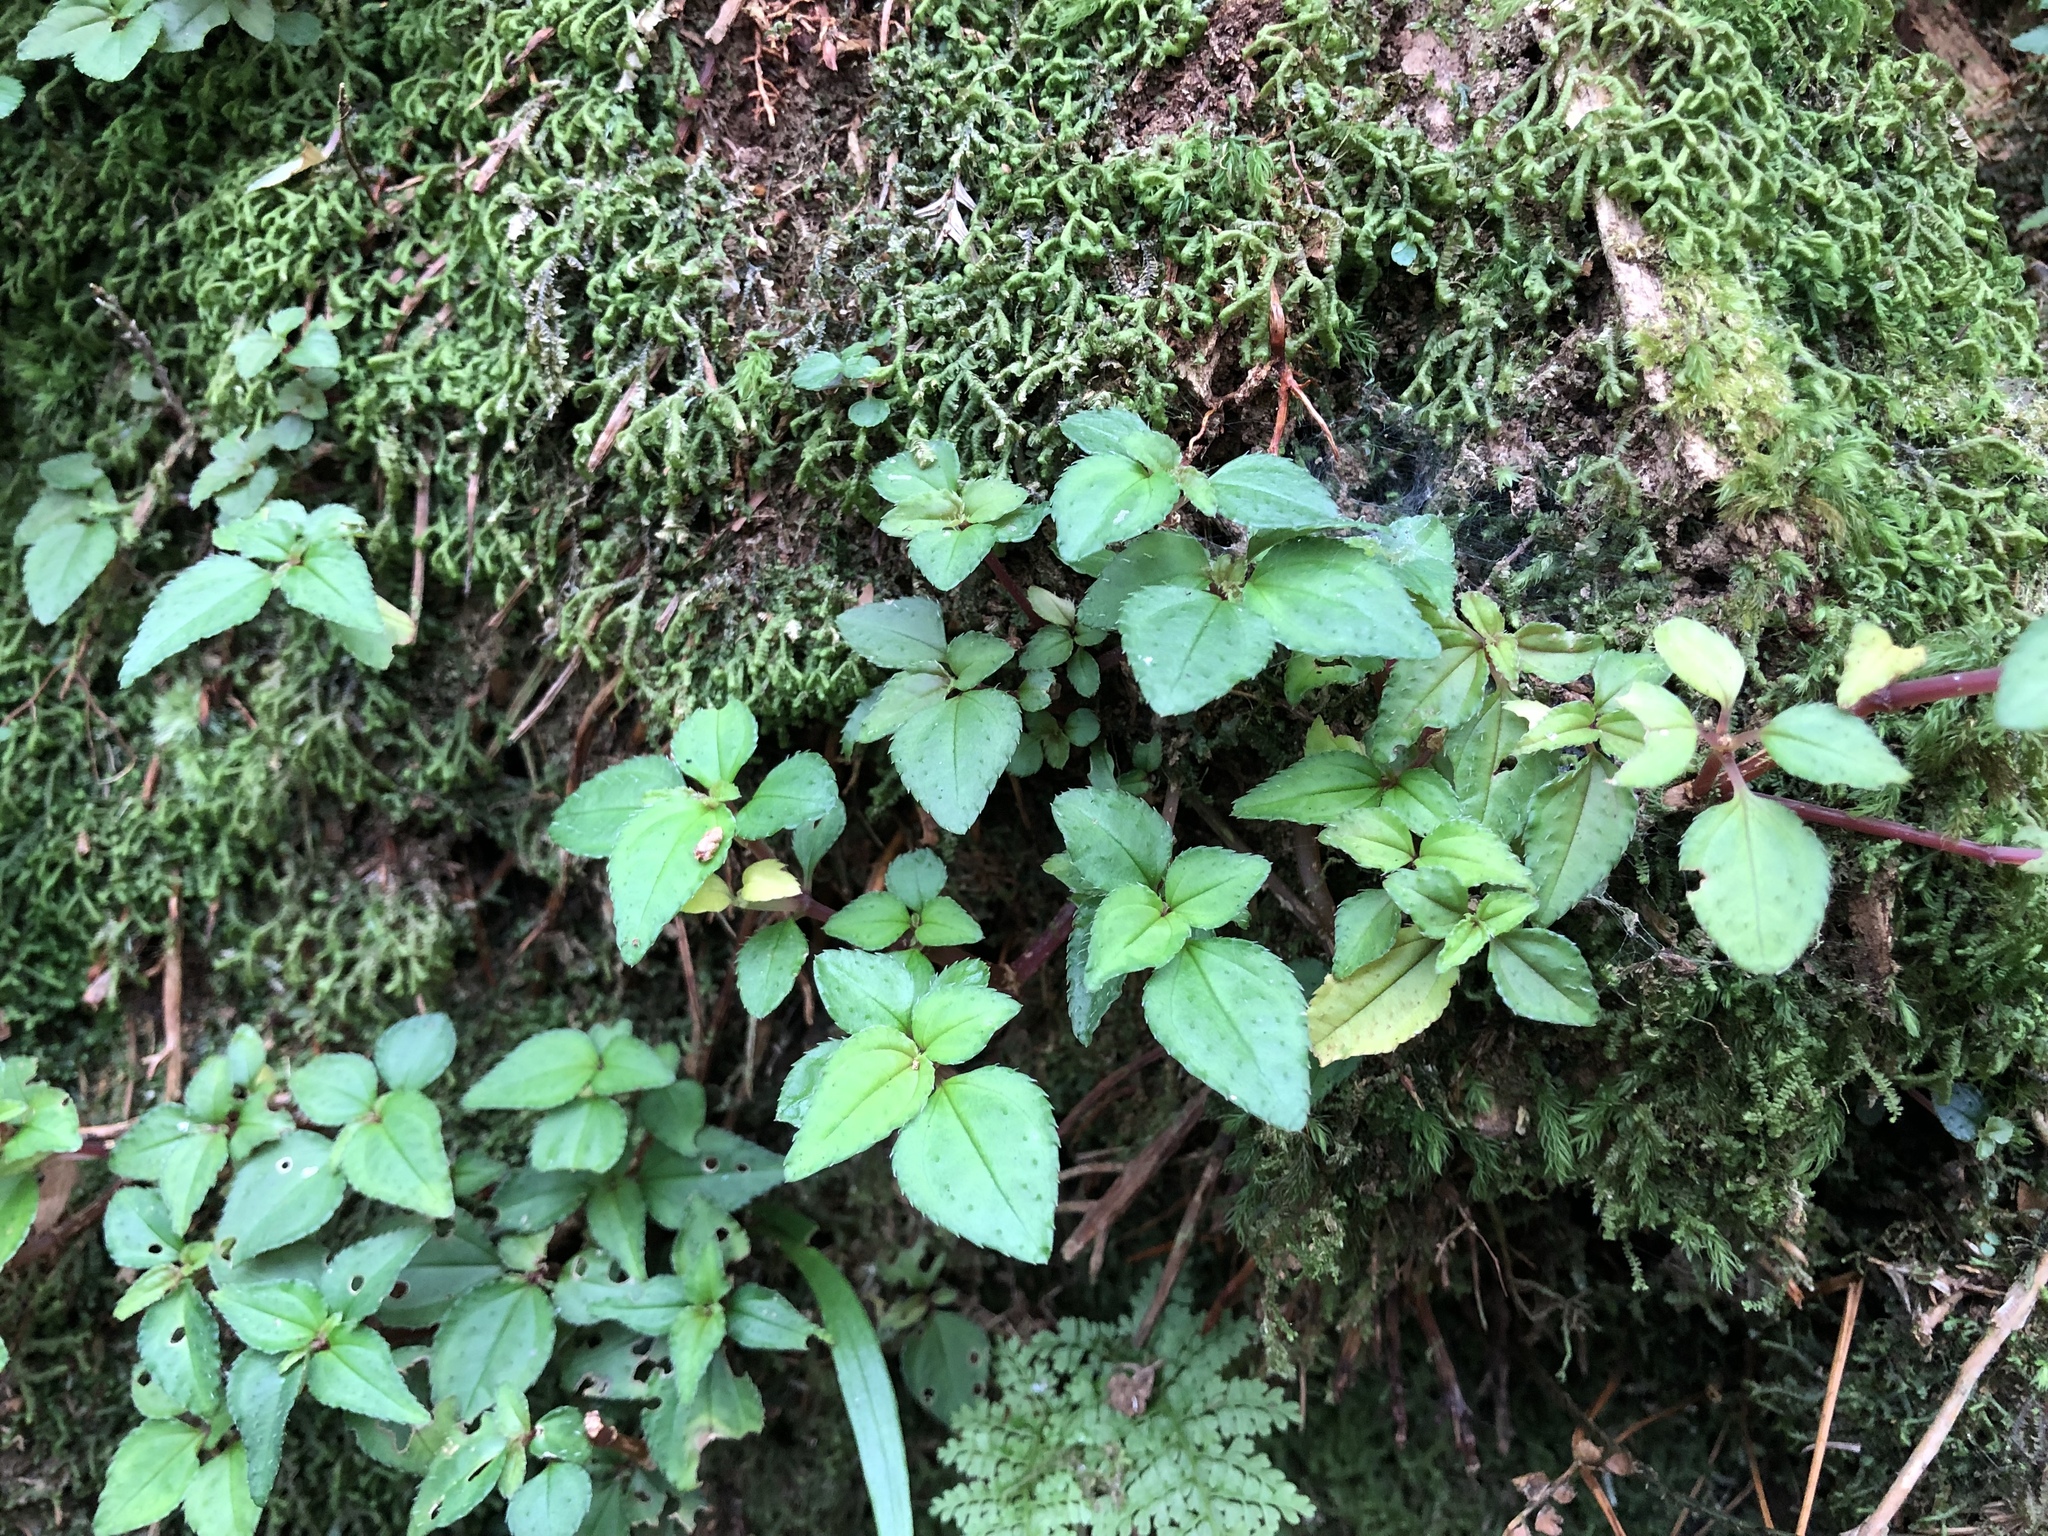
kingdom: Plantae
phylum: Tracheophyta
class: Magnoliopsida
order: Myrtales
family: Melastomataceae
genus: Sarcopyramis
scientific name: Sarcopyramis bodinieri
